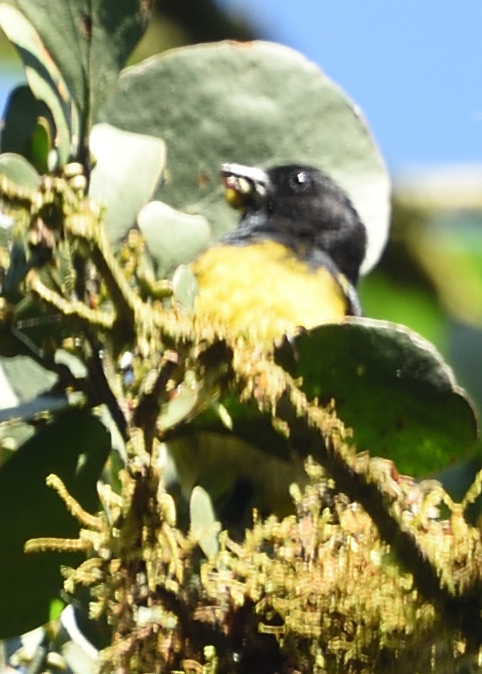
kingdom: Animalia
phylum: Chordata
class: Aves
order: Passeriformes
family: Fringillidae
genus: Spinus
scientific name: Spinus xanthogastrus
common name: Yellow-bellied siskin
